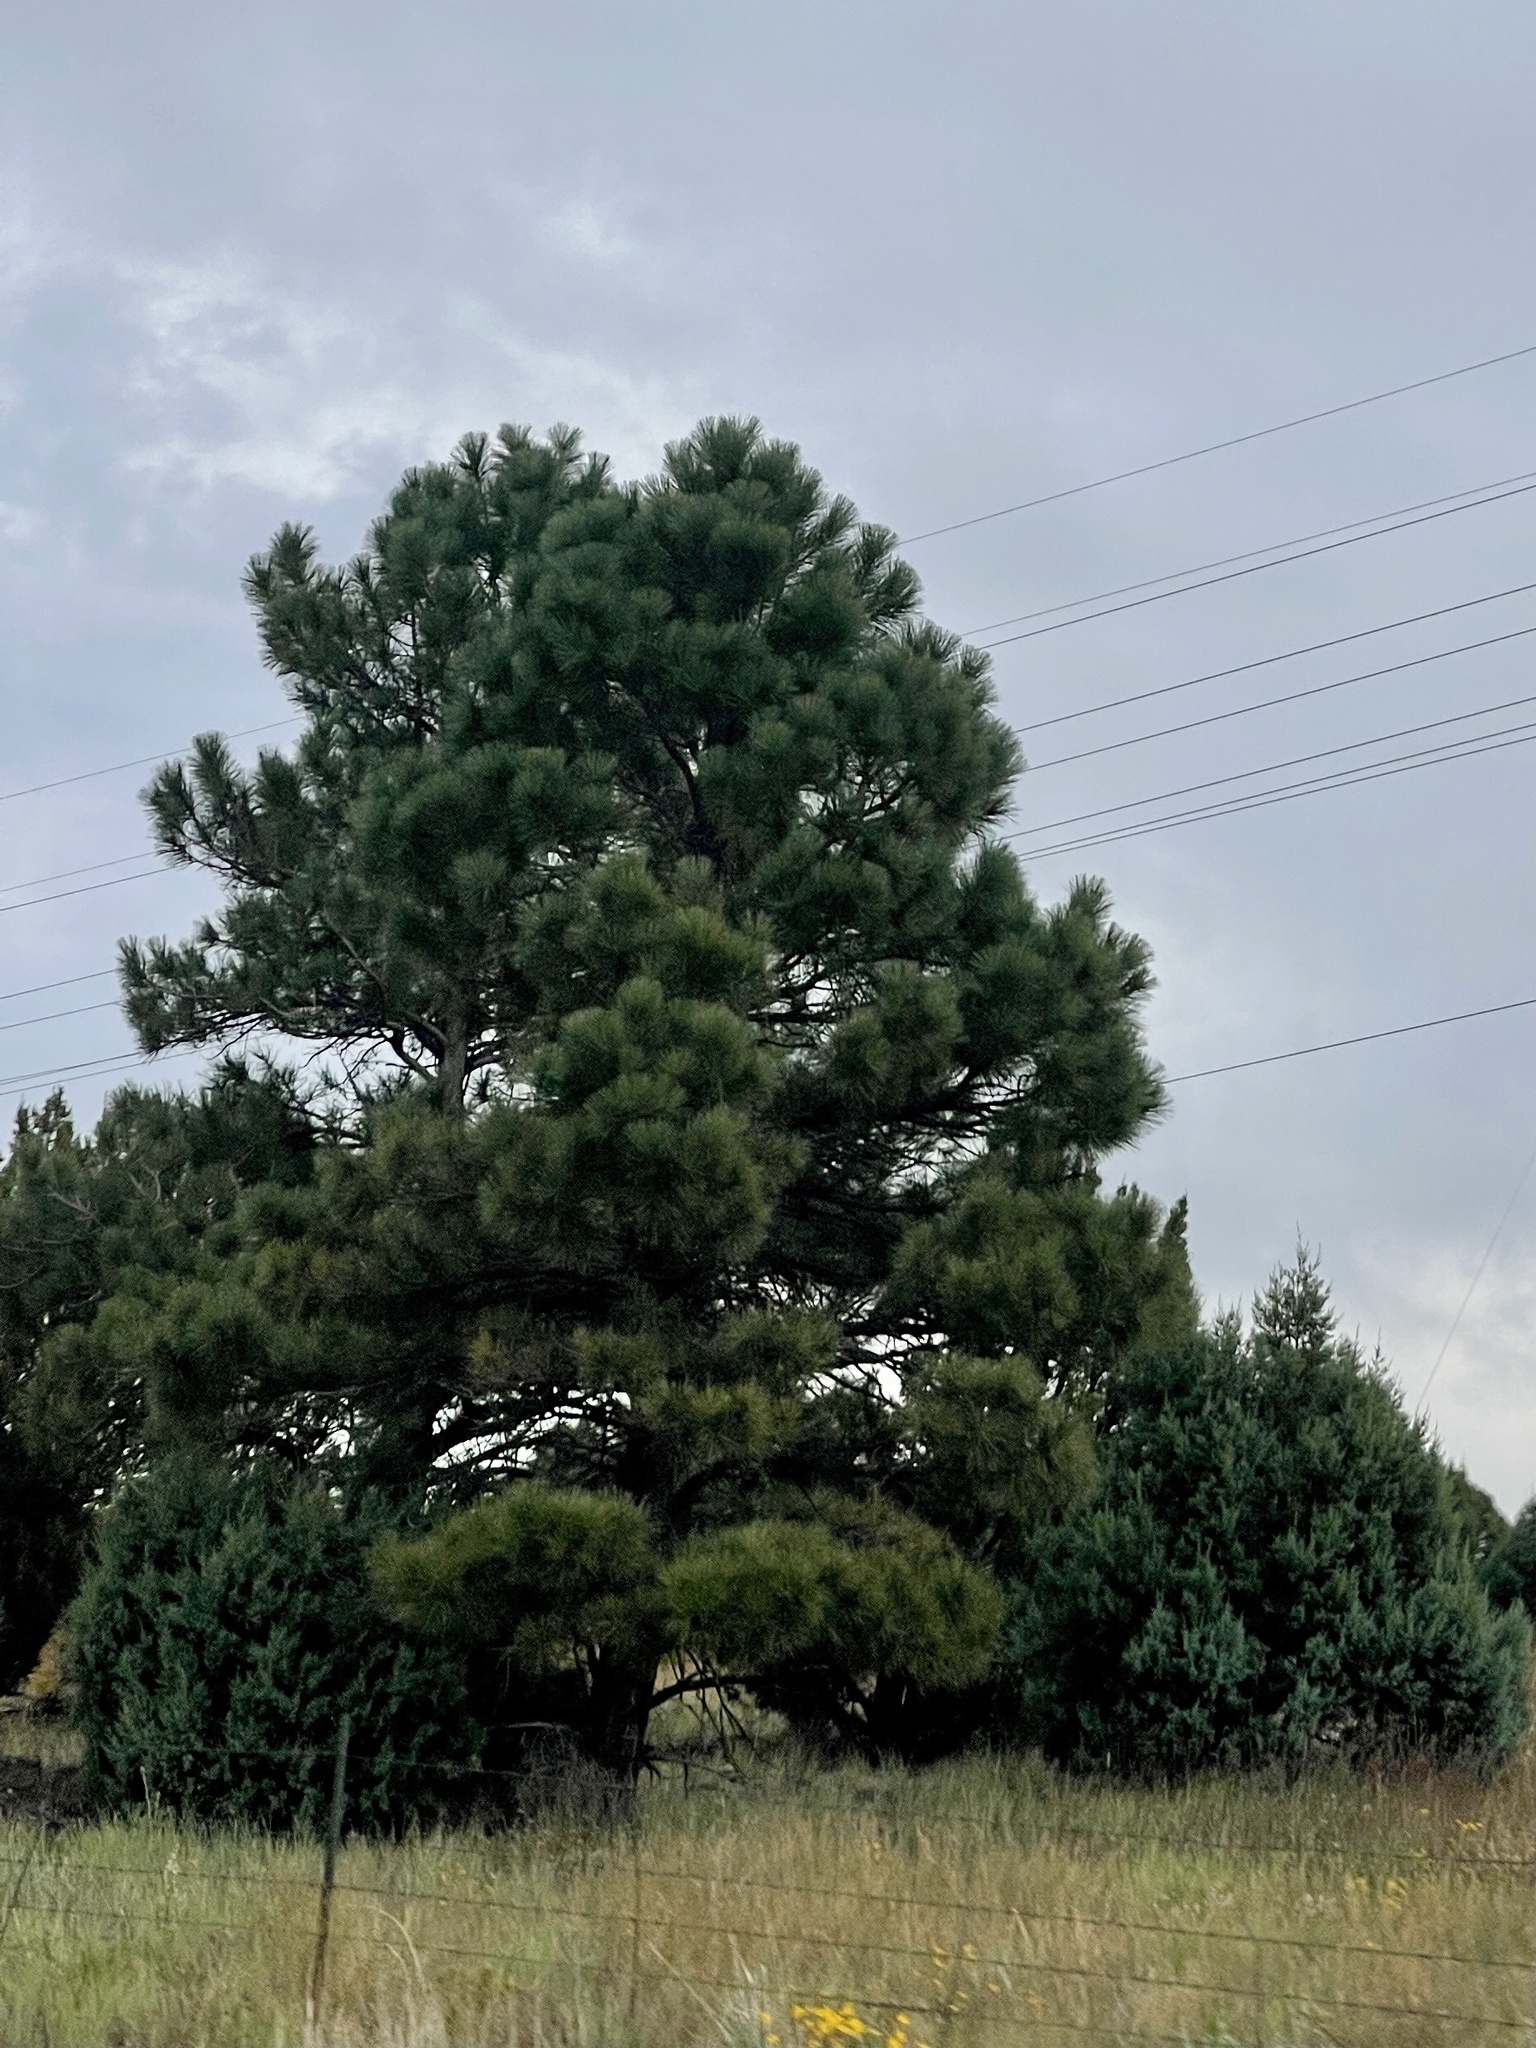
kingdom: Plantae
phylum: Tracheophyta
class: Pinopsida
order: Pinales
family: Pinaceae
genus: Pinus
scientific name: Pinus ponderosa
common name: Western yellow-pine
